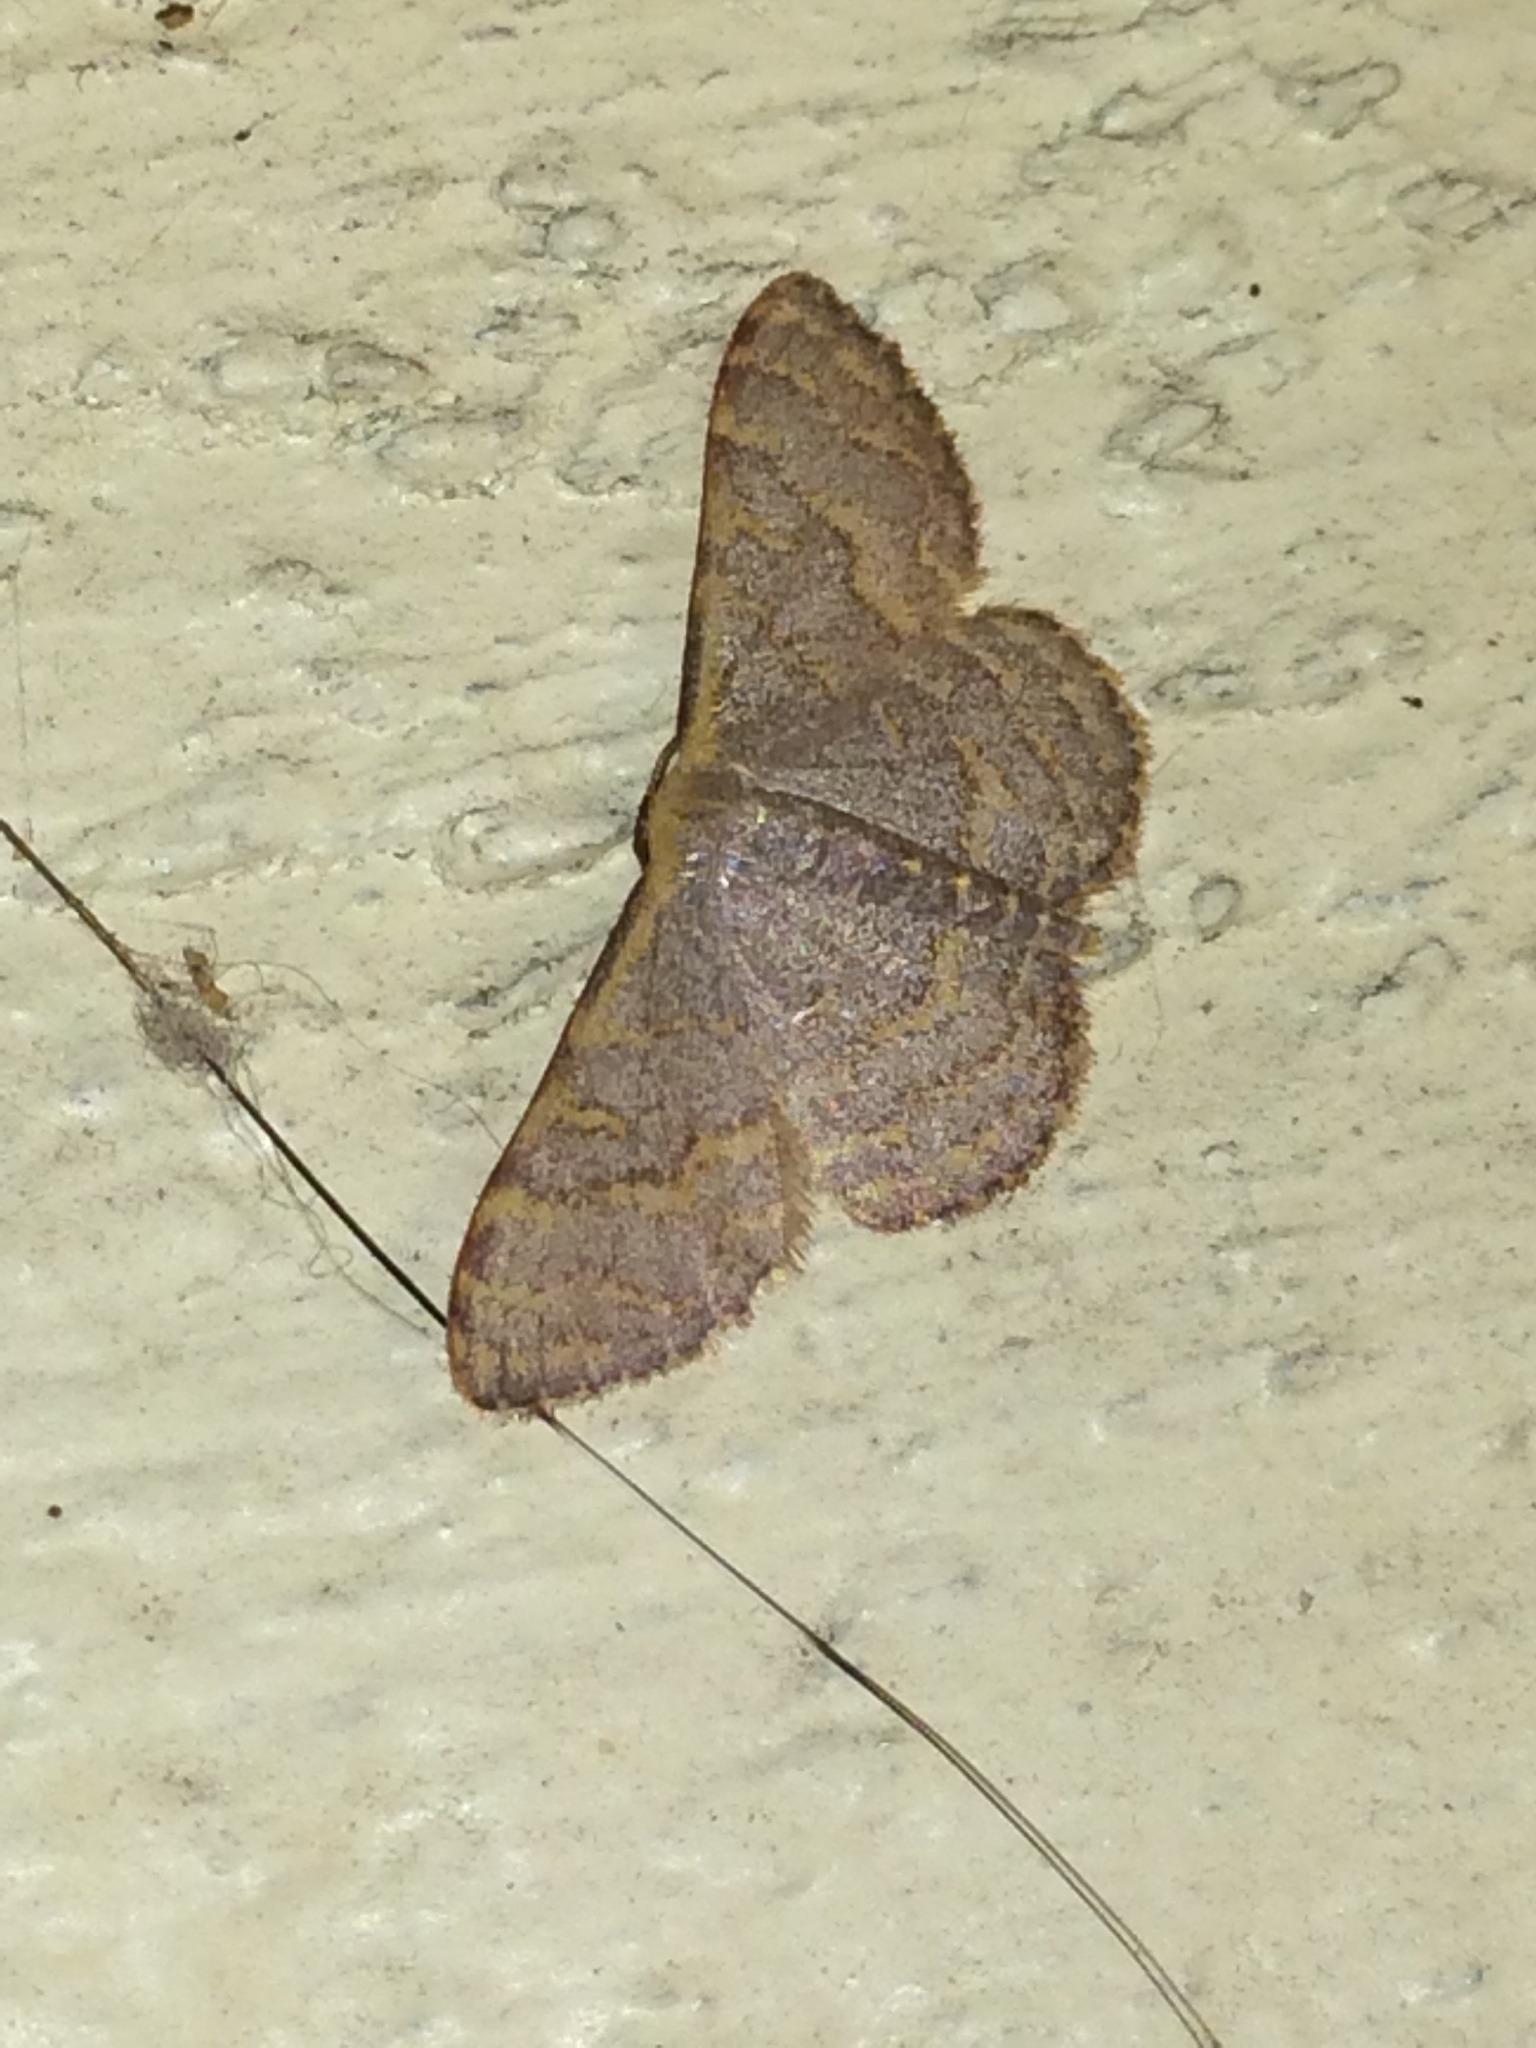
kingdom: Animalia
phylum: Arthropoda
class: Insecta
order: Lepidoptera
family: Geometridae
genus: Leptostales
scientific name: Leptostales pannaria
